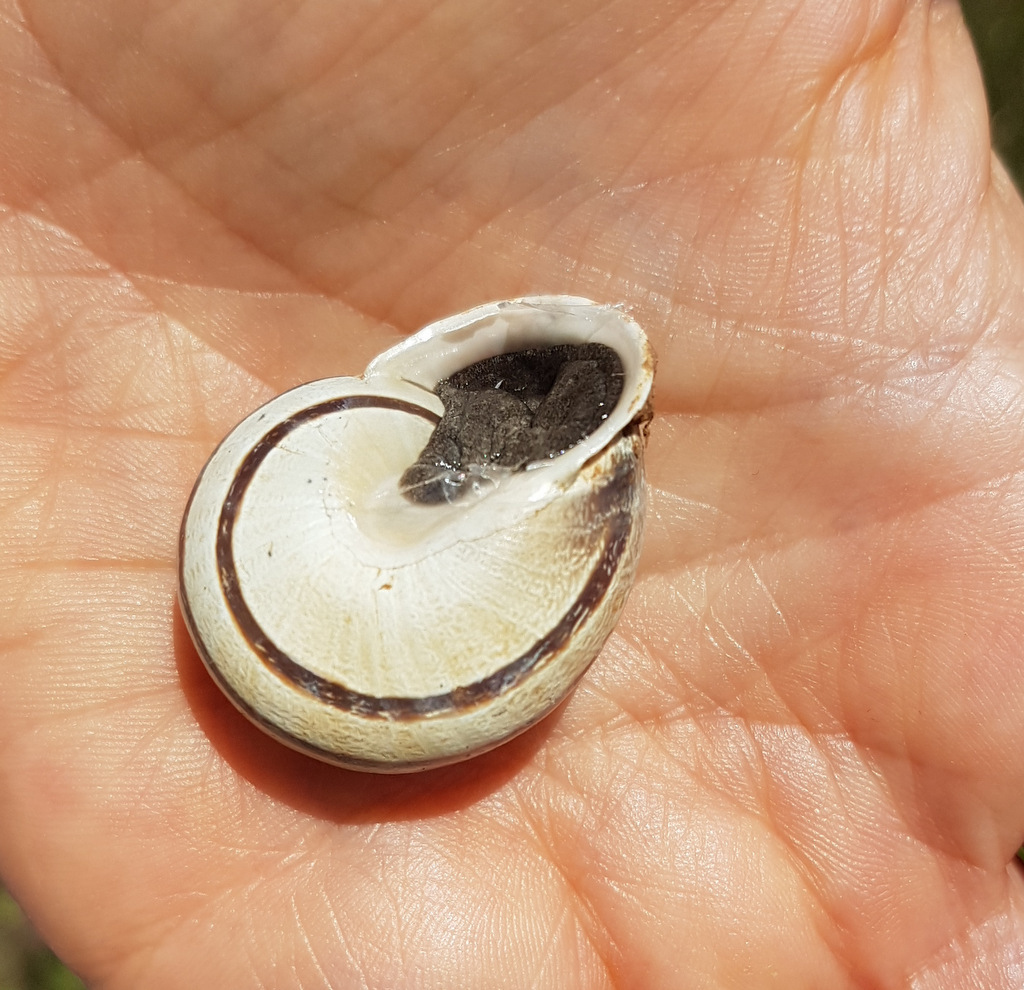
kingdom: Animalia
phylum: Mollusca
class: Gastropoda
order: Stylommatophora
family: Helicidae
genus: Eobania
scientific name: Eobania vermiculata
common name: Chocolateband snail
